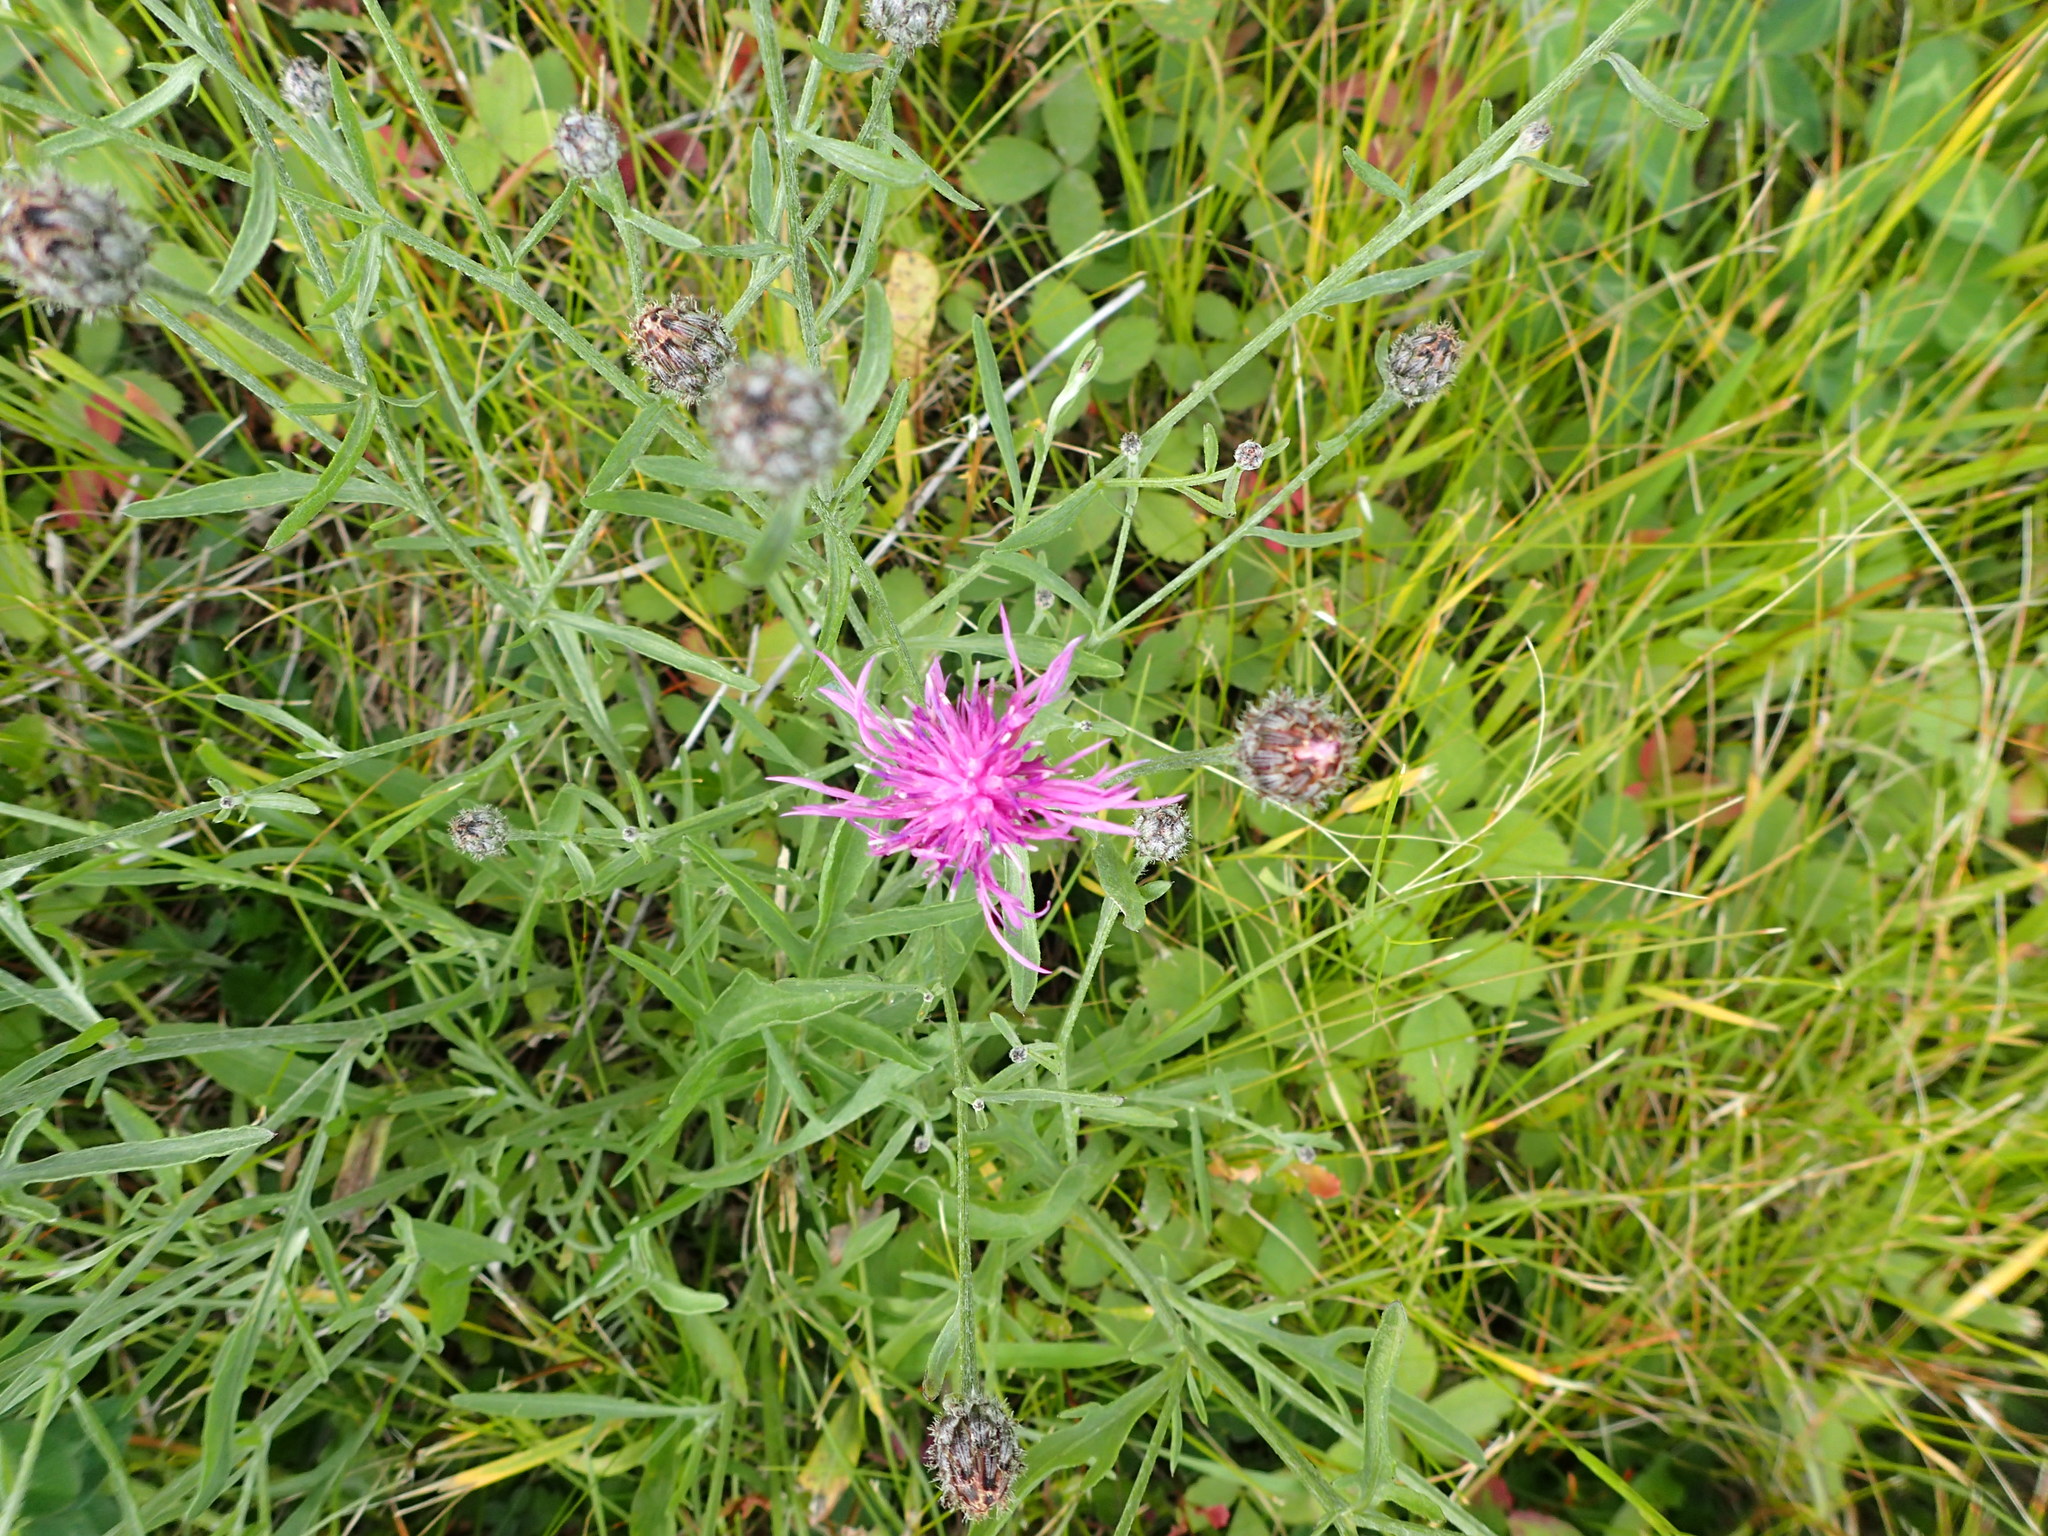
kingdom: Plantae
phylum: Tracheophyta
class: Magnoliopsida
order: Asterales
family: Asteraceae
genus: Centaurea
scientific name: Centaurea stoebe
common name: Spotted knapweed
